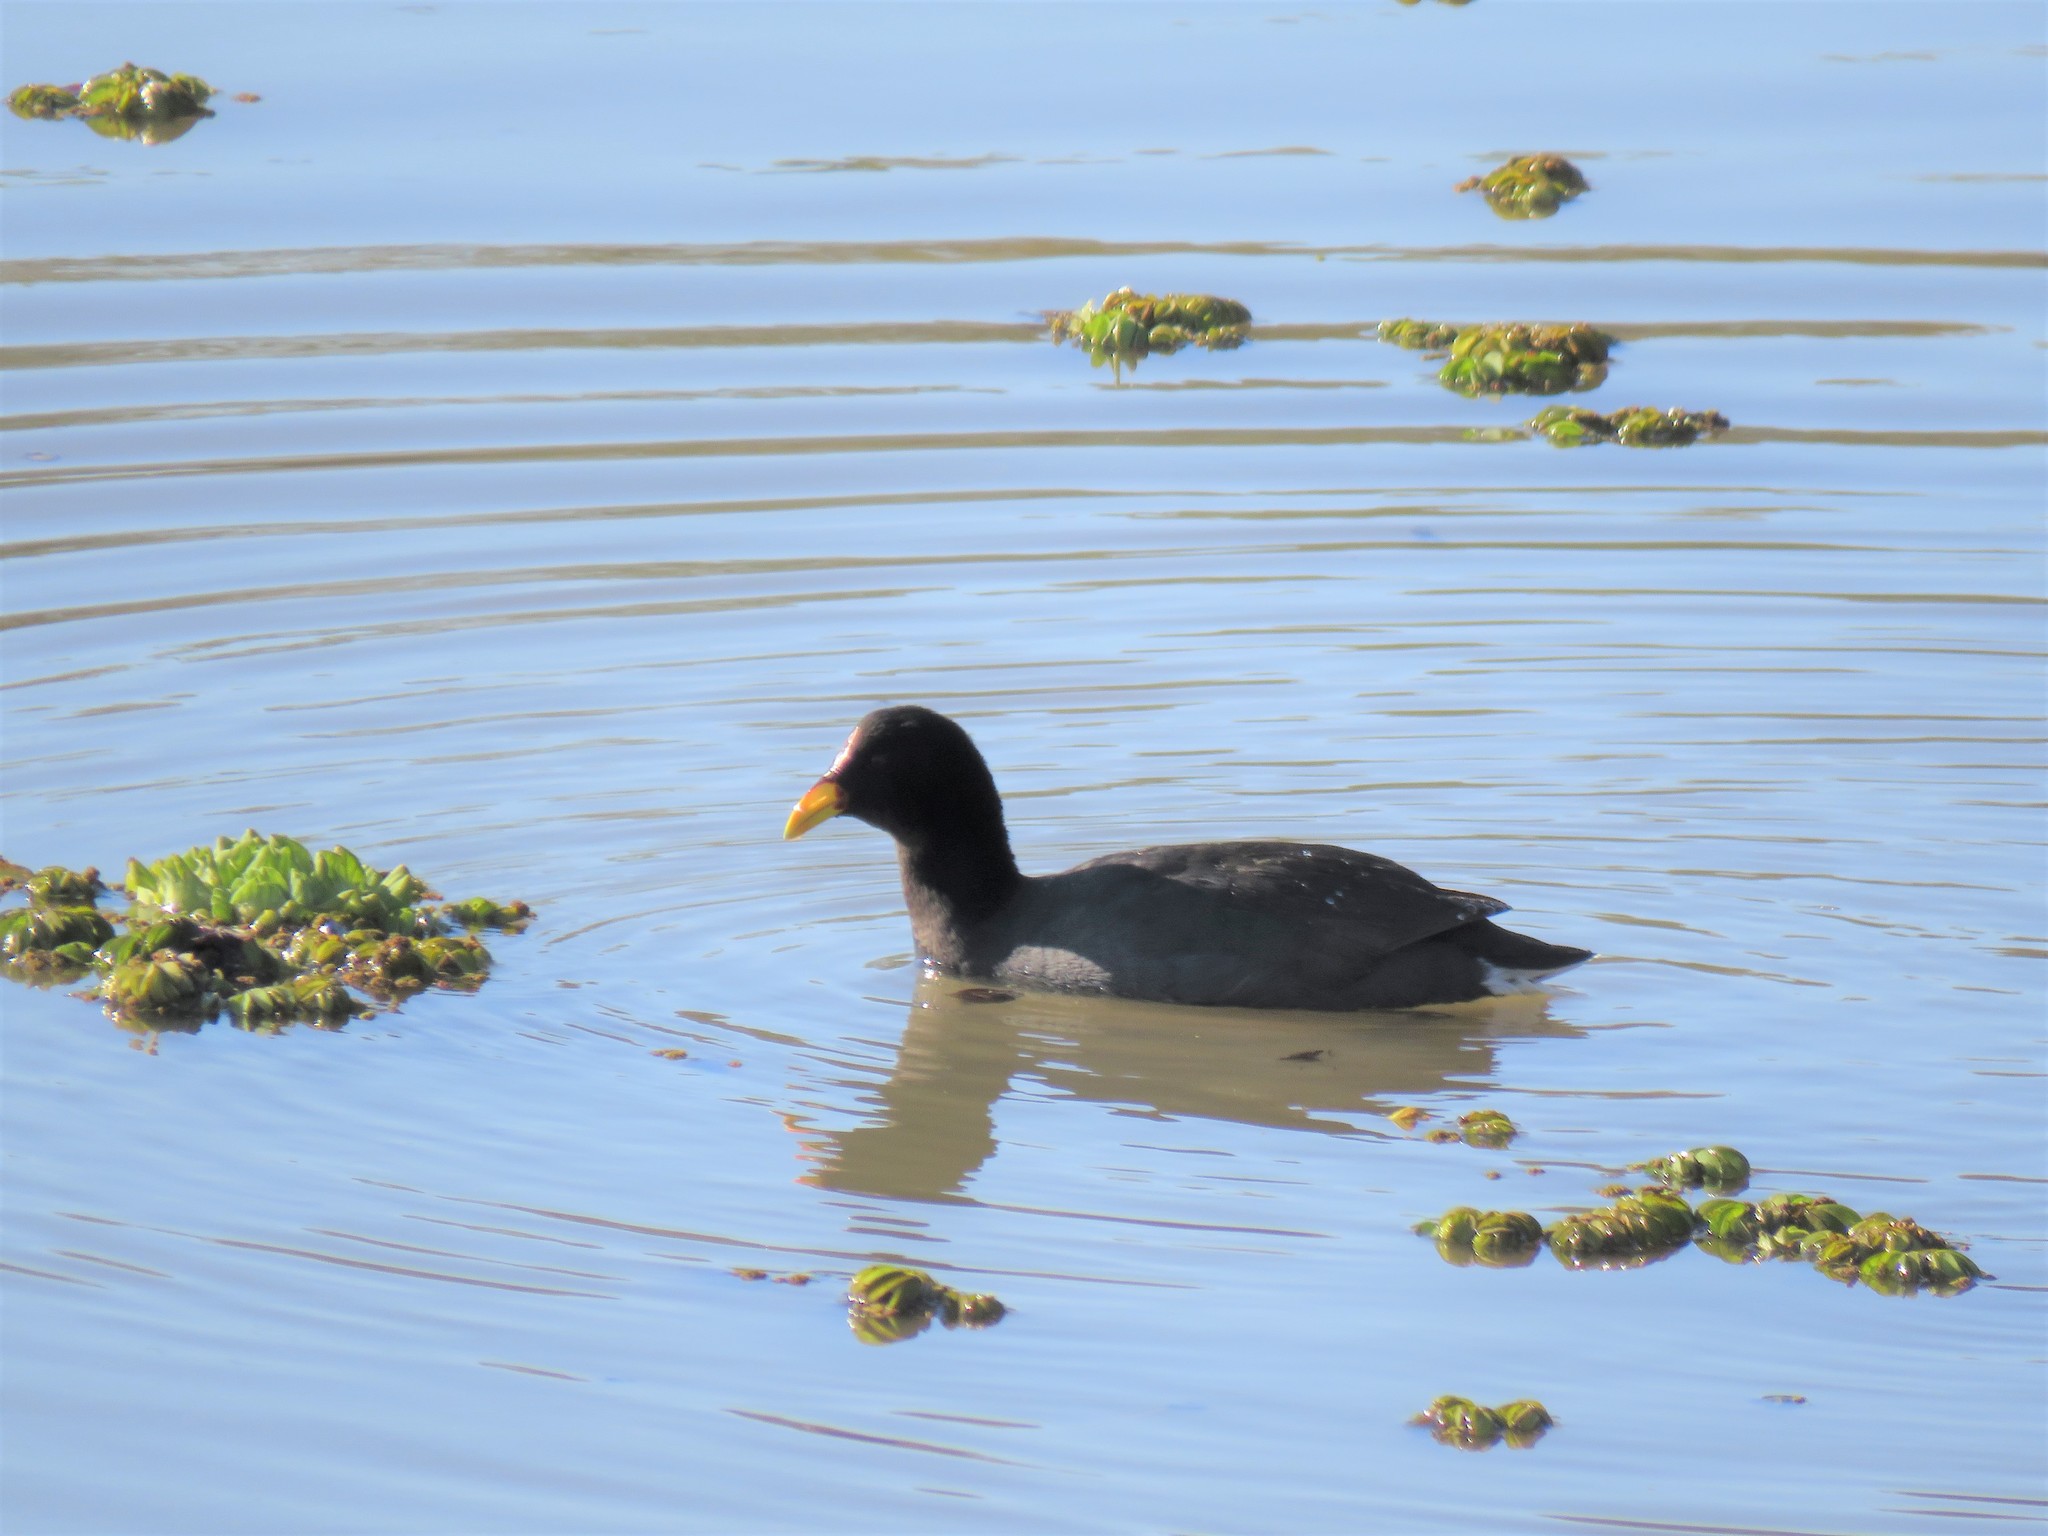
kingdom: Animalia
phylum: Chordata
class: Aves
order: Gruiformes
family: Rallidae
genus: Fulica
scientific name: Fulica rufifrons
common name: Red-fronted coot
